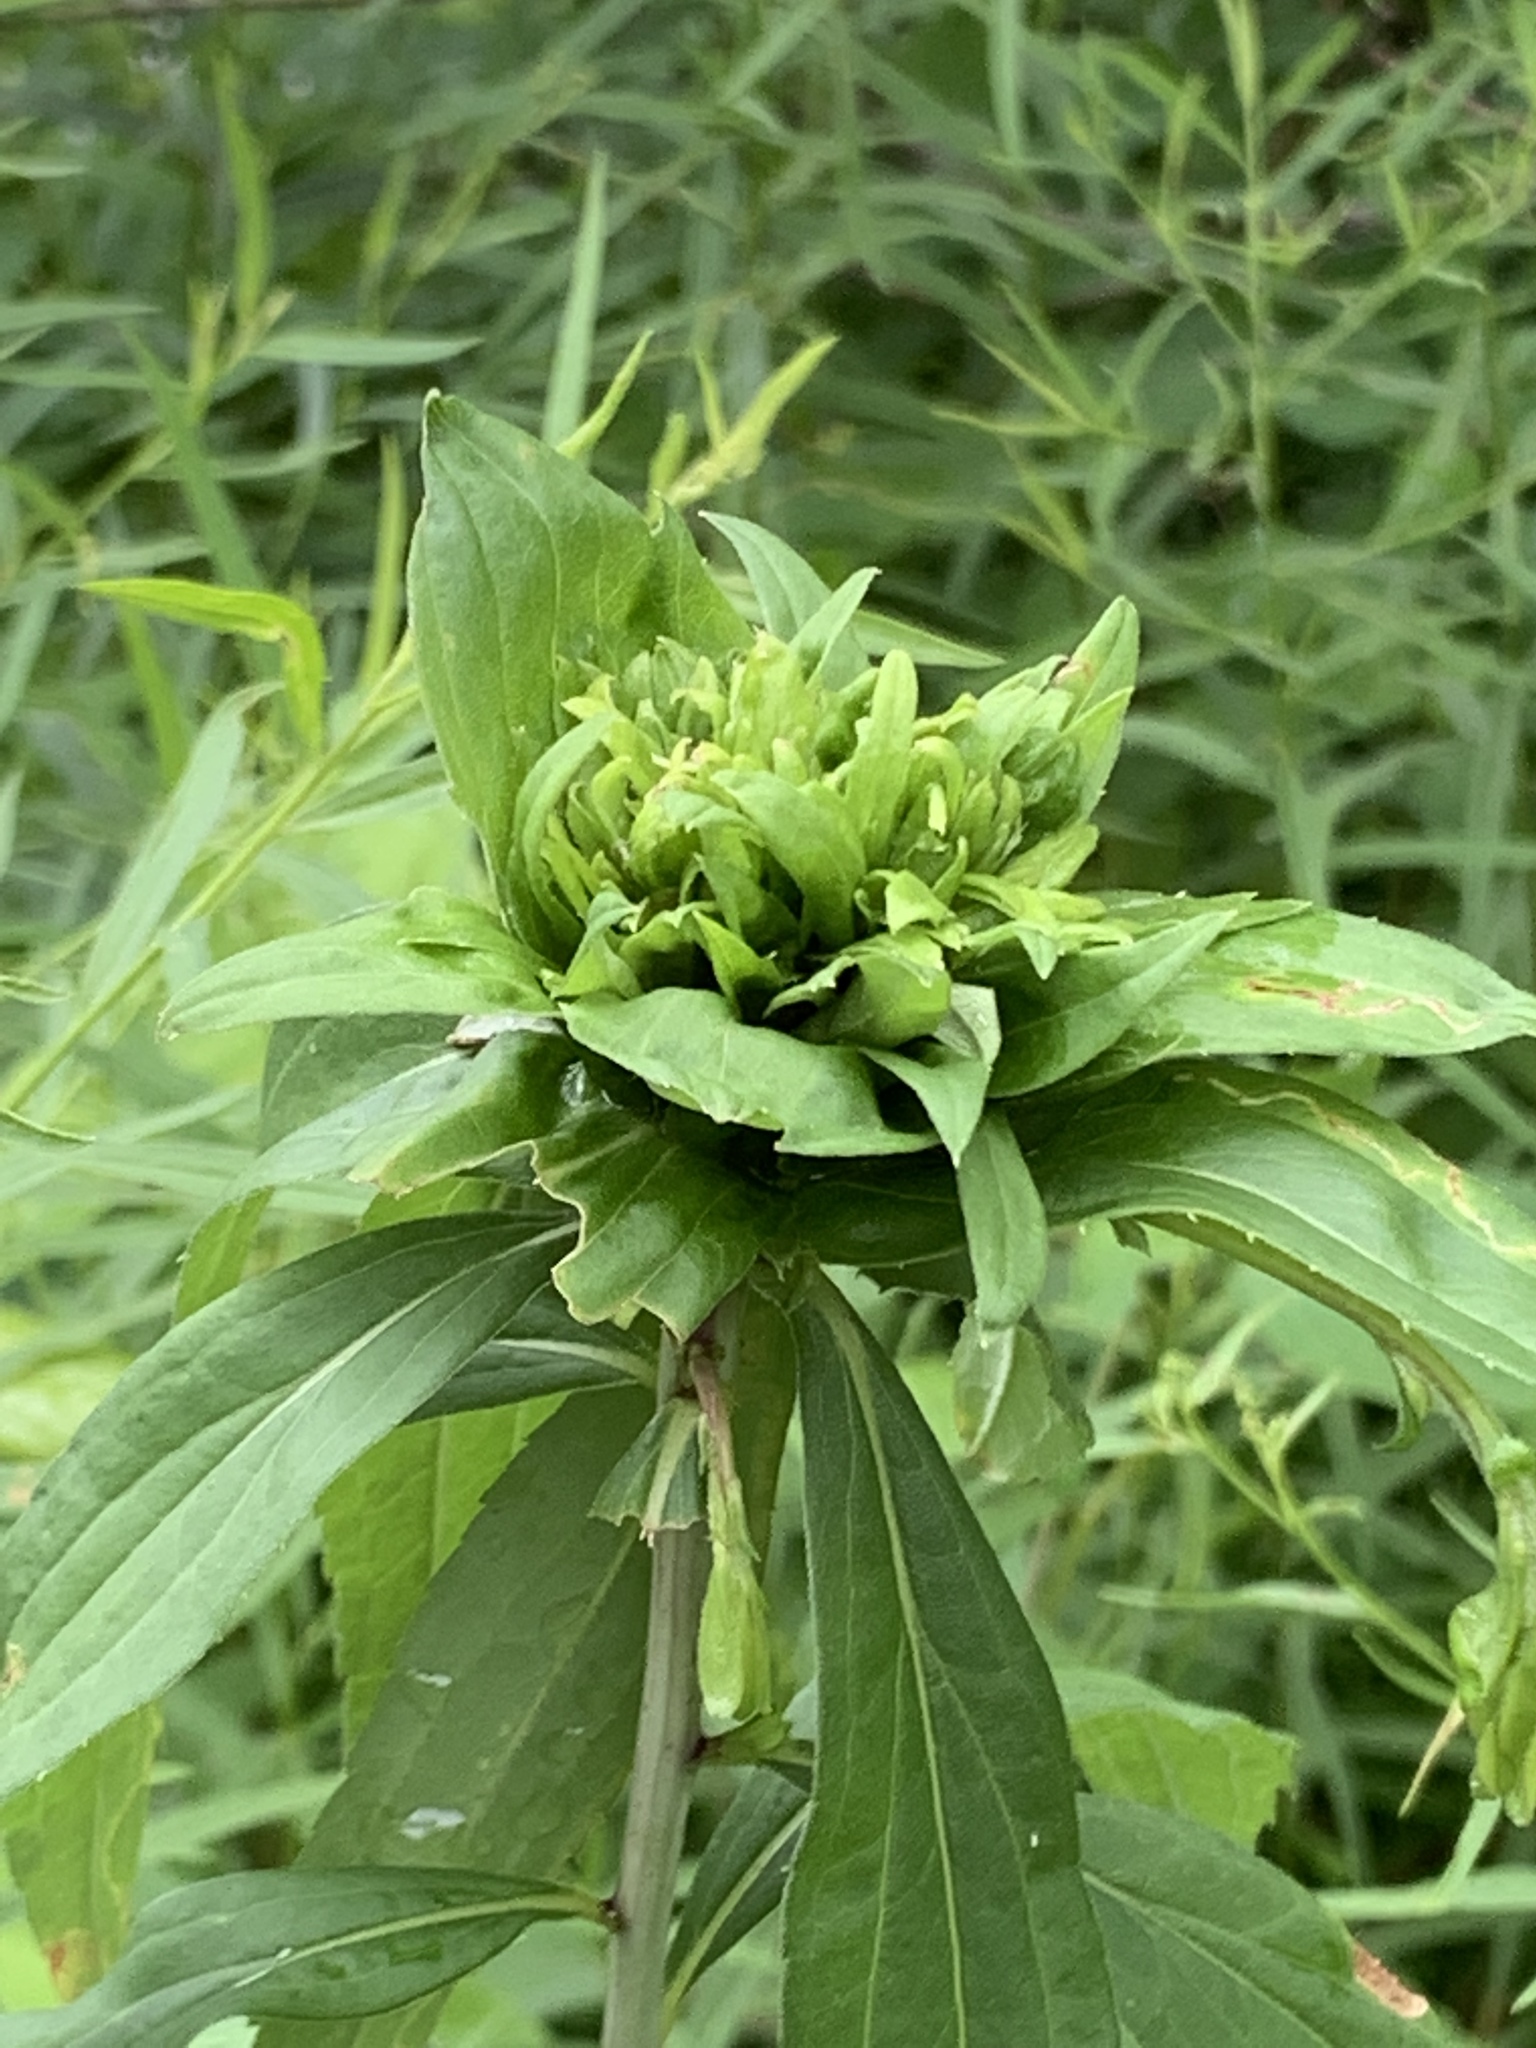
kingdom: Animalia
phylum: Arthropoda
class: Insecta
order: Diptera
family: Cecidomyiidae
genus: Rhopalomyia
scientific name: Rhopalomyia capitata
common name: Giant goldenrod bunch gall midge
